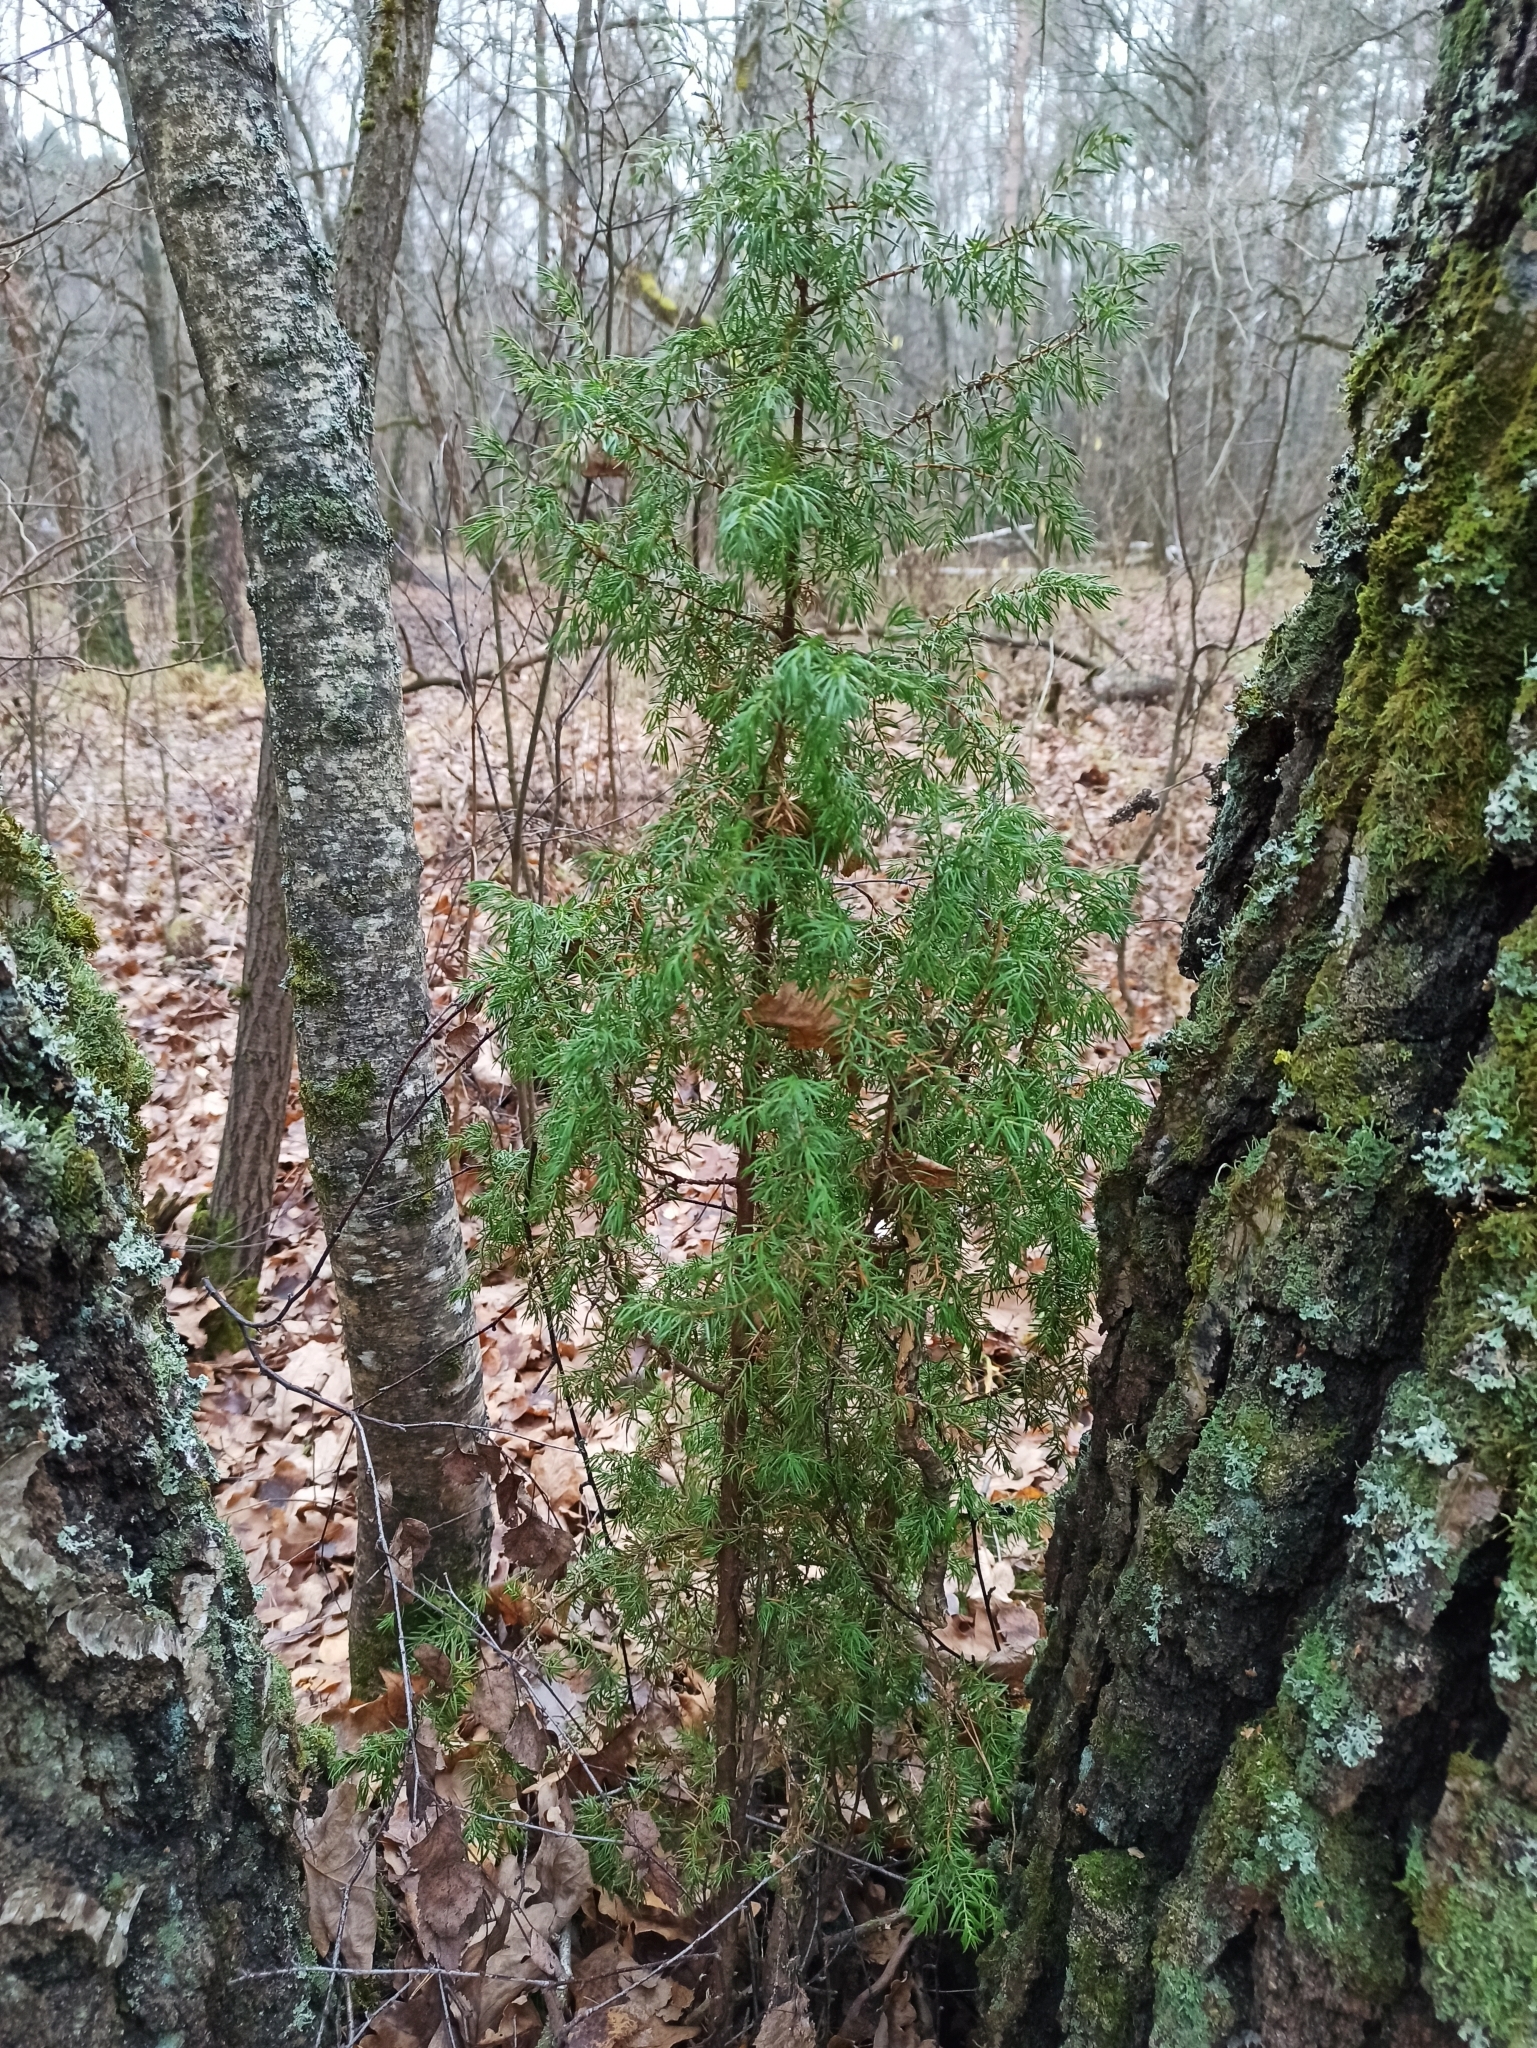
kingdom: Plantae
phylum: Tracheophyta
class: Pinopsida
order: Pinales
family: Cupressaceae
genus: Juniperus
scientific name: Juniperus communis
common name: Common juniper
